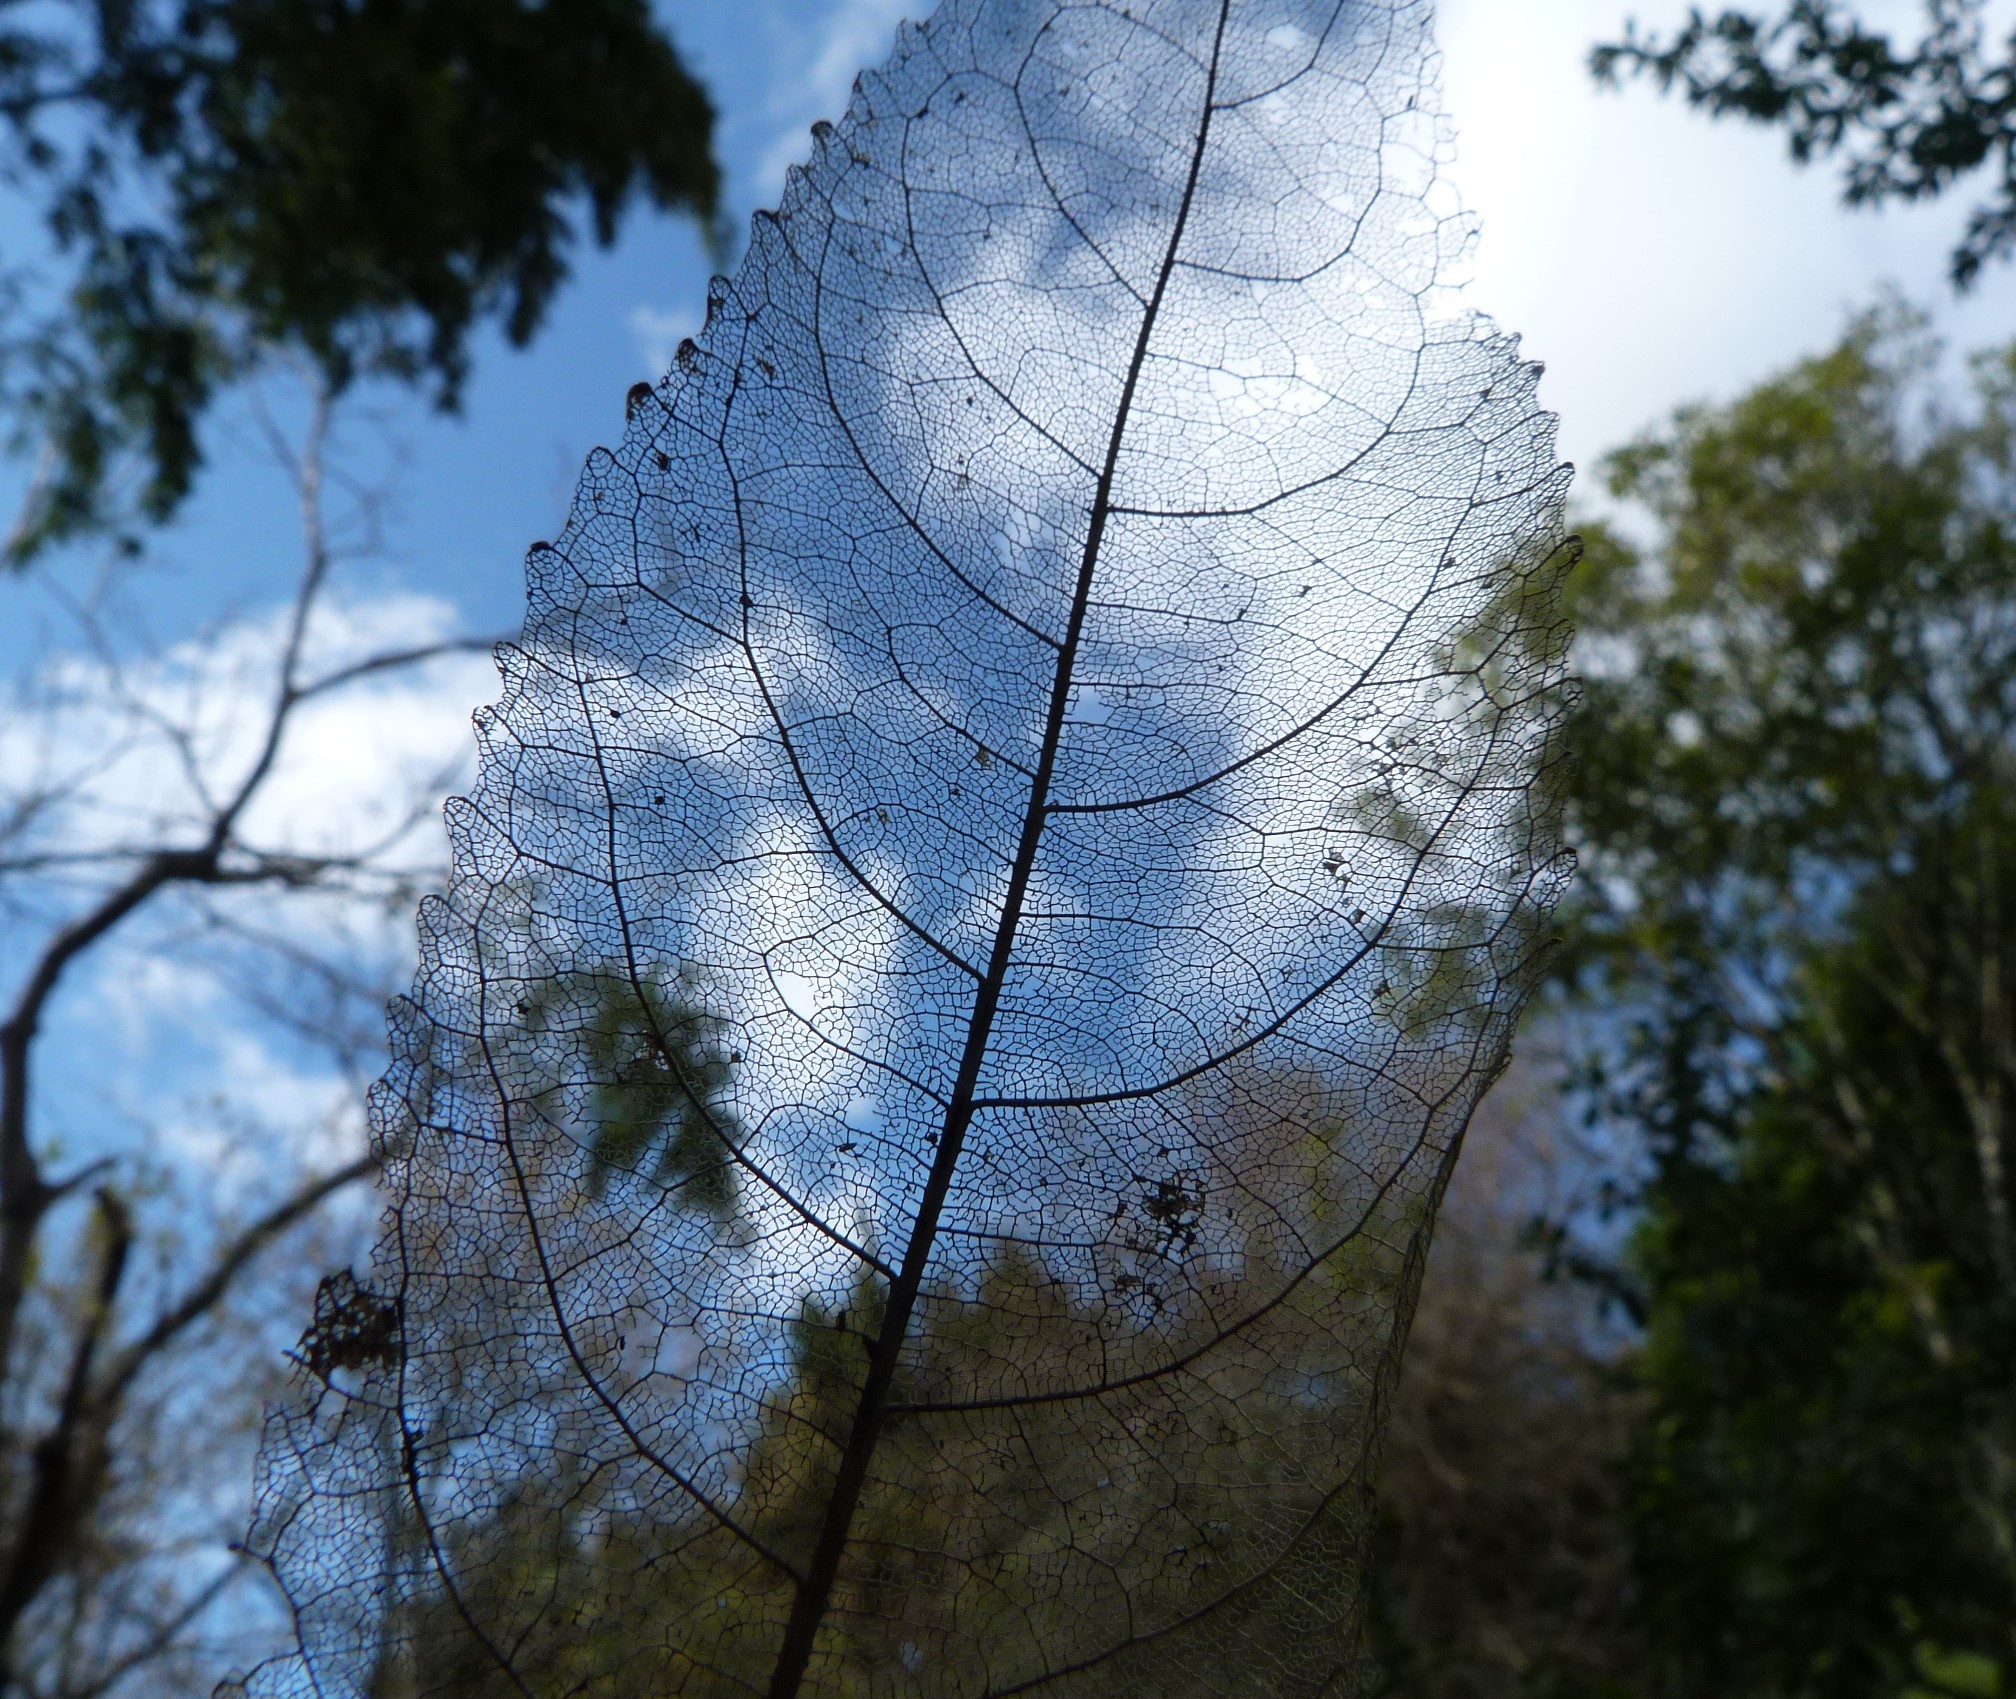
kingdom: Plantae
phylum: Tracheophyta
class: Magnoliopsida
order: Malpighiales
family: Violaceae
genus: Melicytus
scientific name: Melicytus ramiflorus
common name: Mahoe
